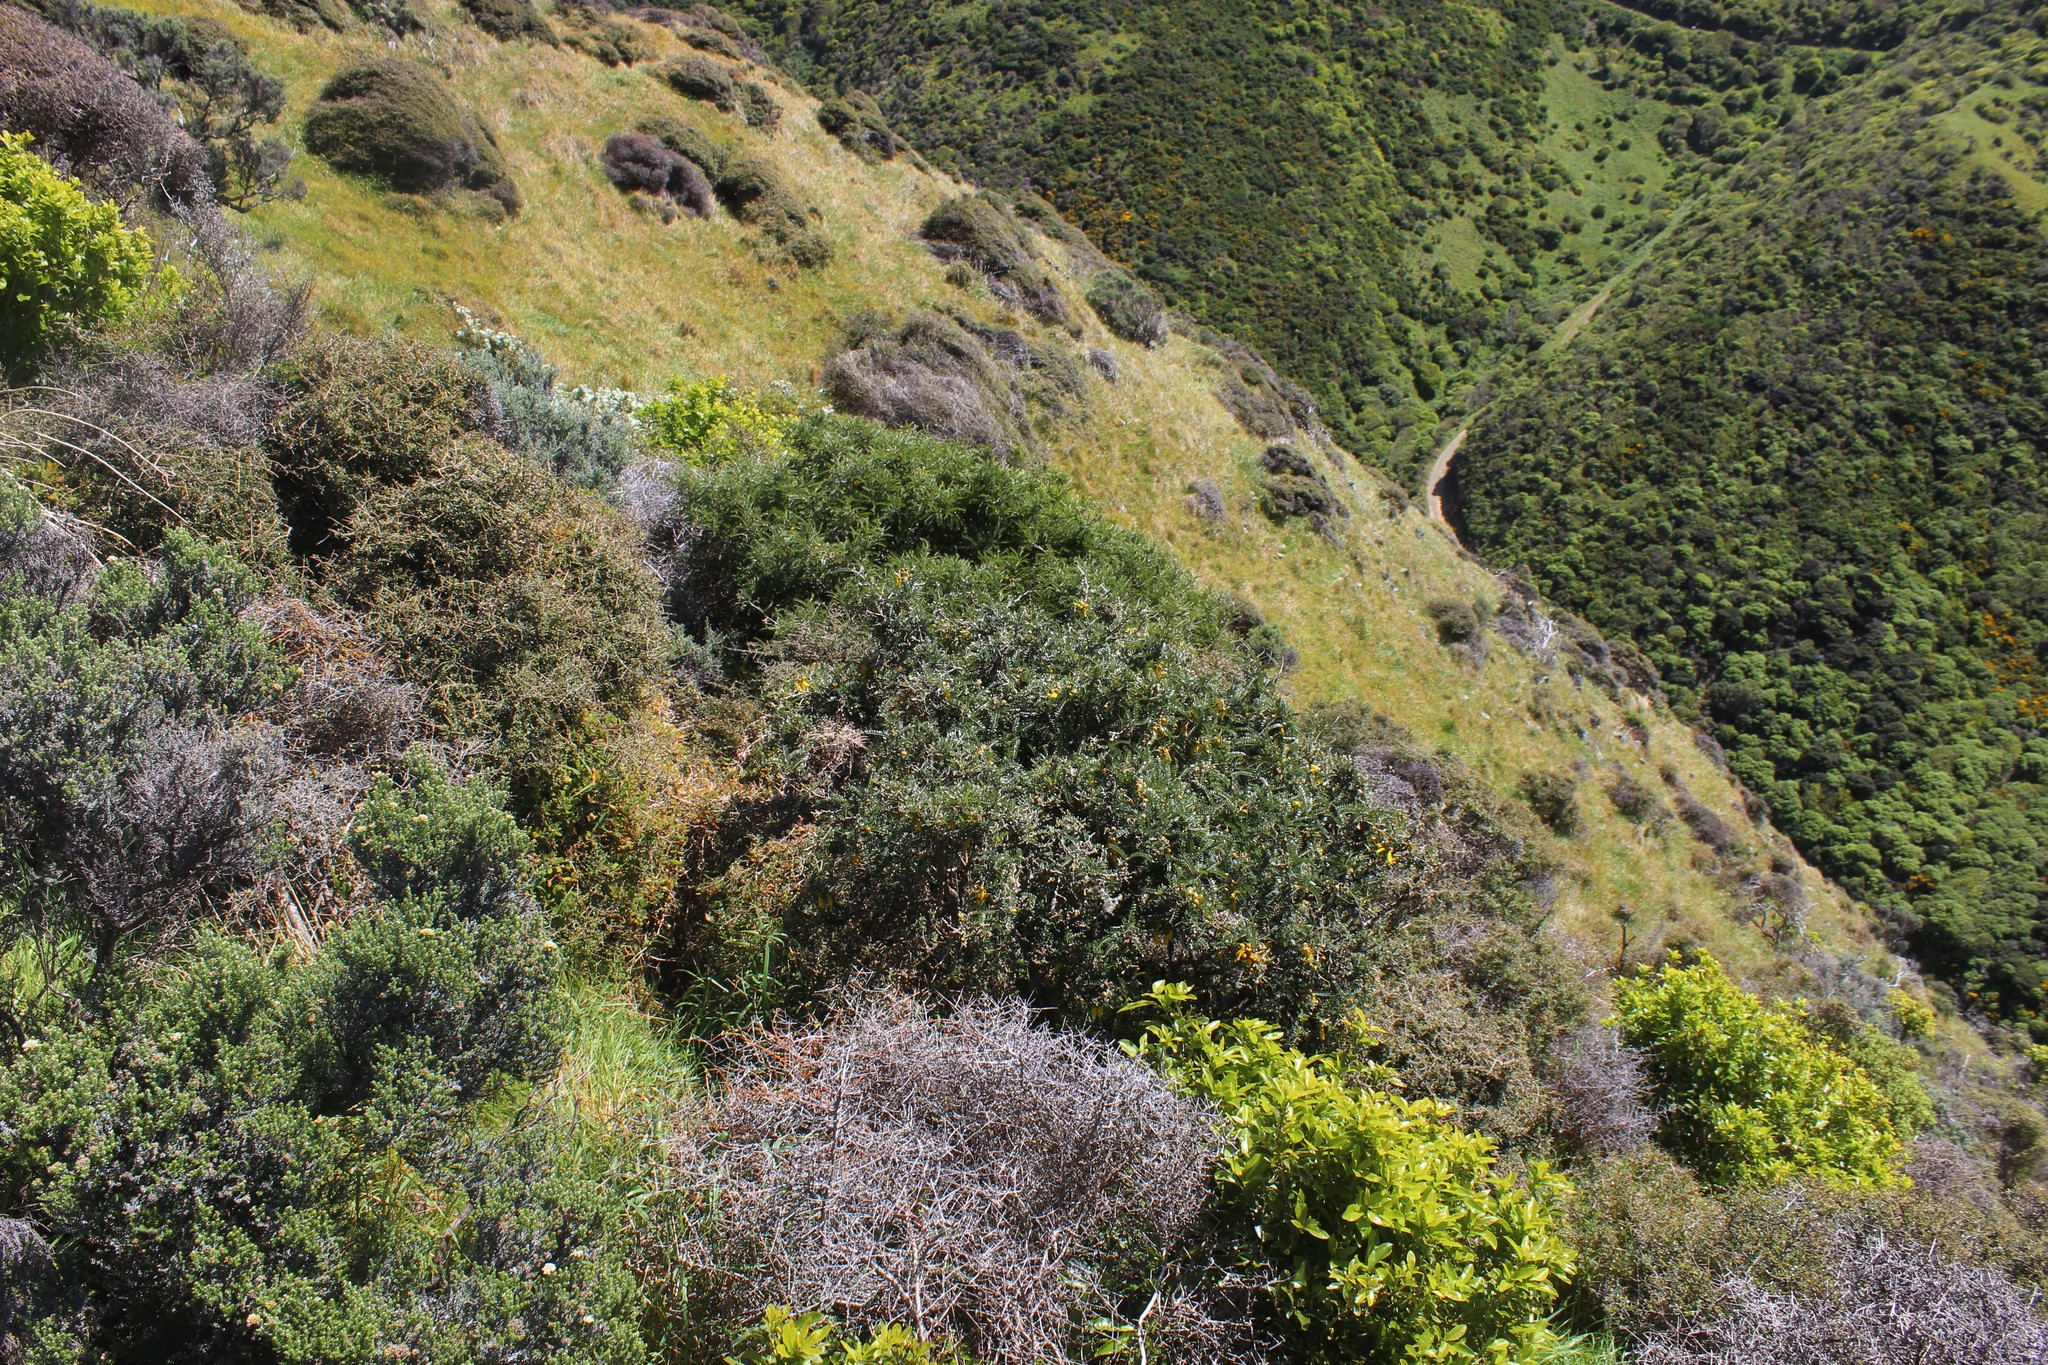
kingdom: Plantae
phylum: Tracheophyta
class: Magnoliopsida
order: Fabales
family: Fabaceae
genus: Sophora
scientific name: Sophora molloyi
